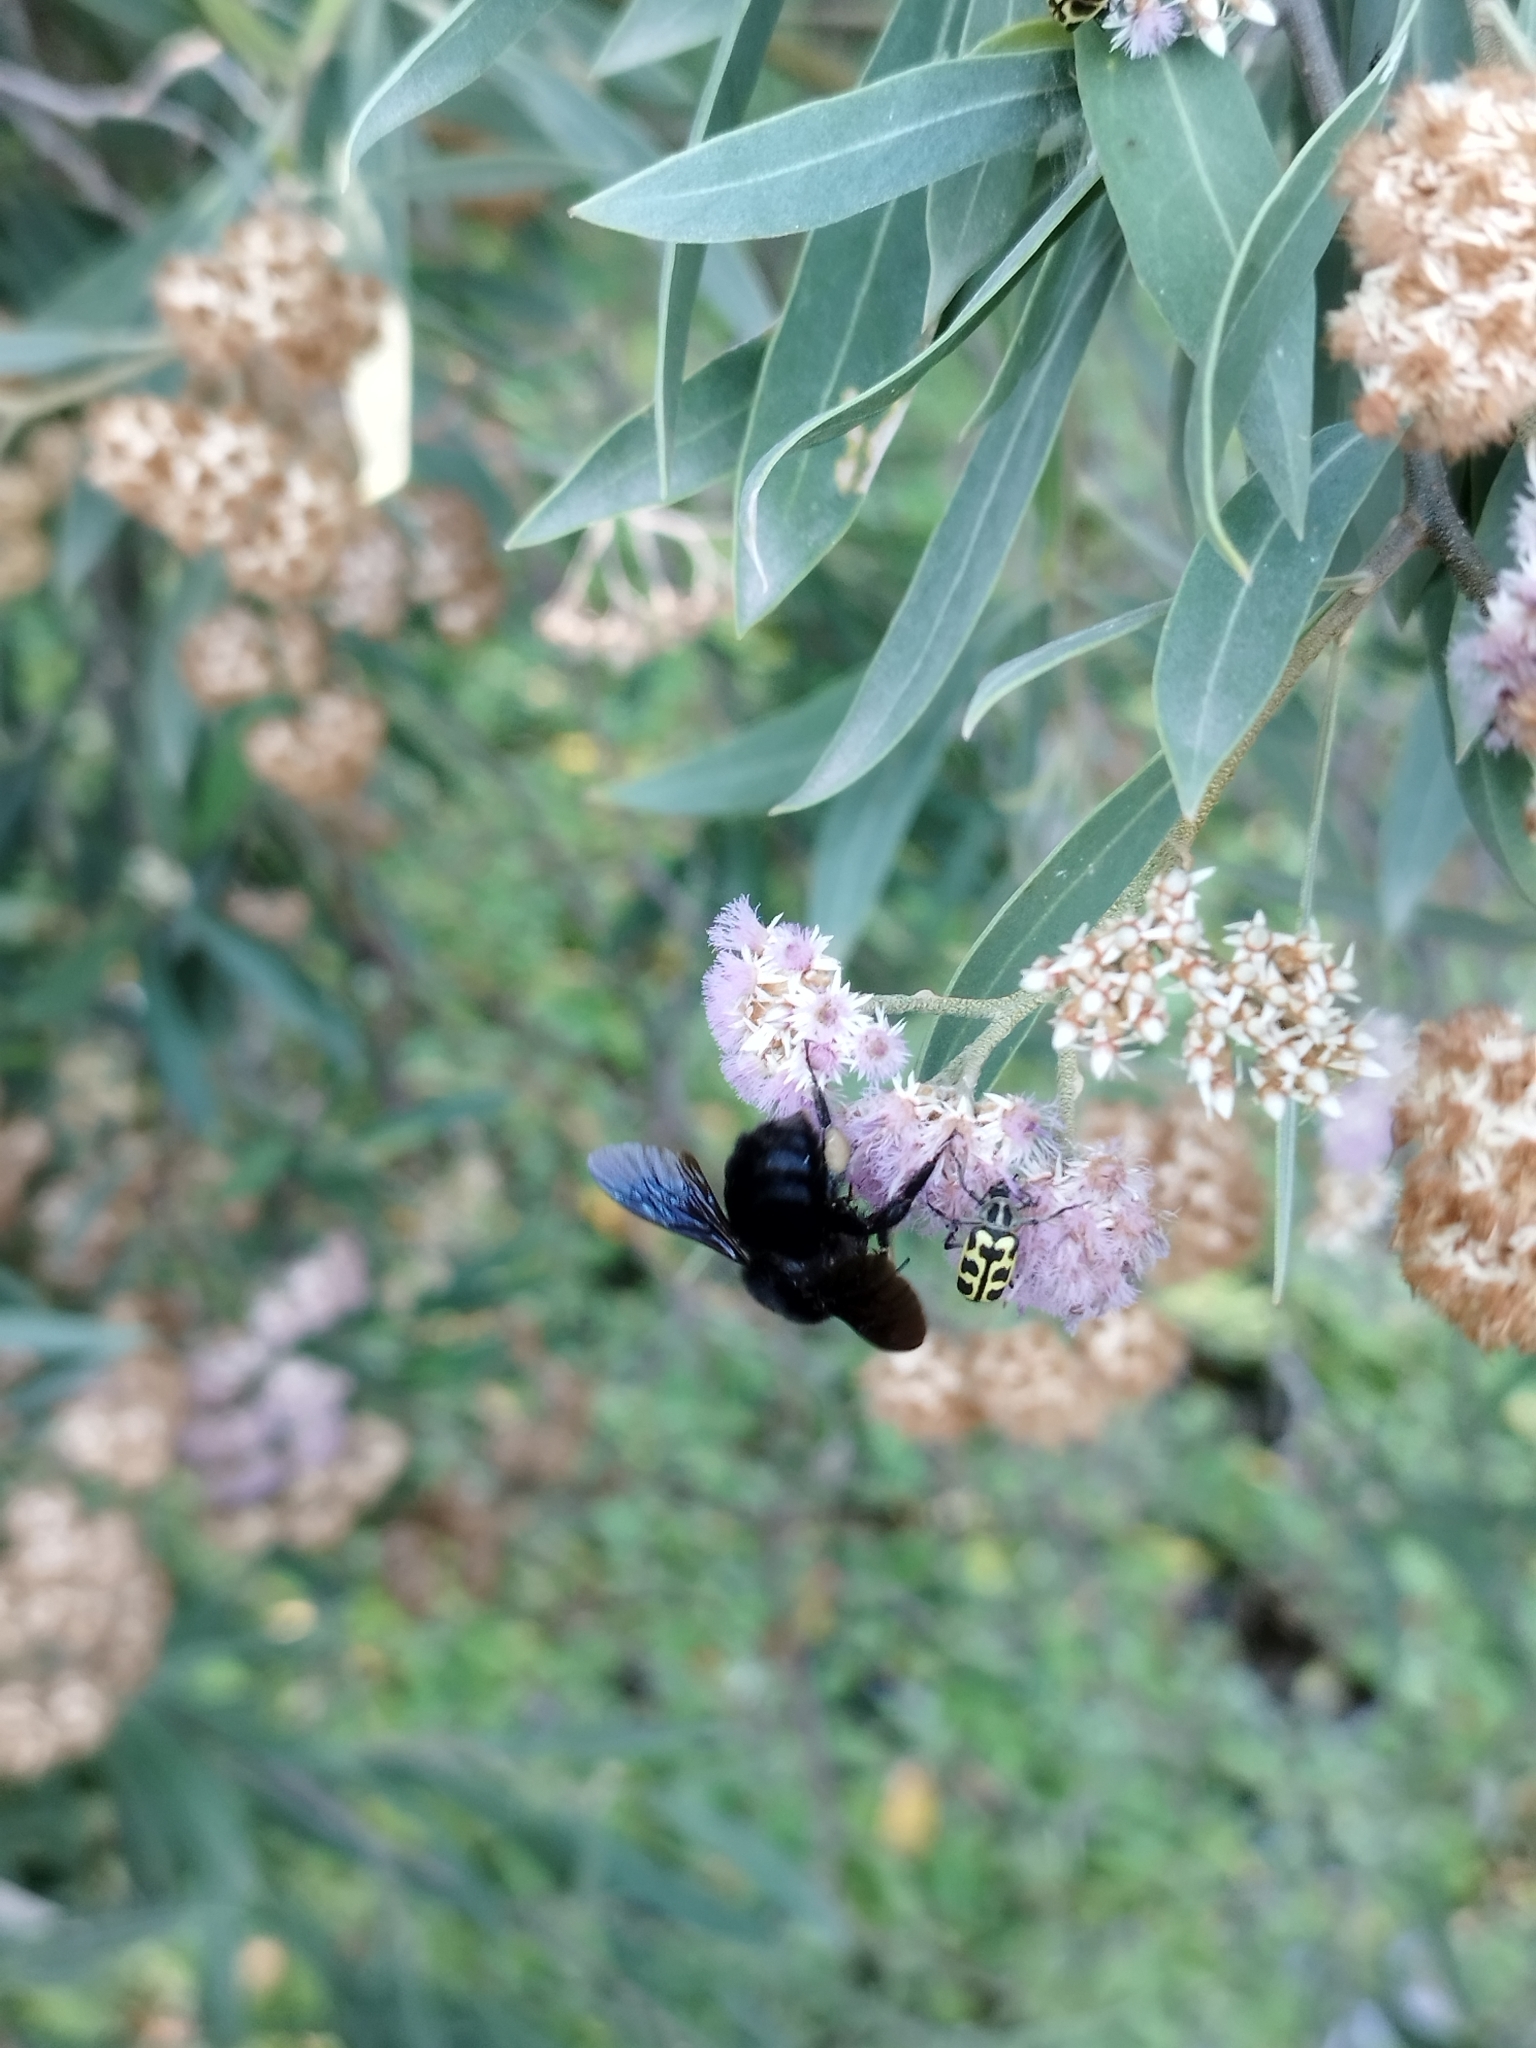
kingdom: Animalia
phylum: Arthropoda
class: Insecta
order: Hymenoptera
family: Apidae
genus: Bombus
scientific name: Bombus pauloensis
